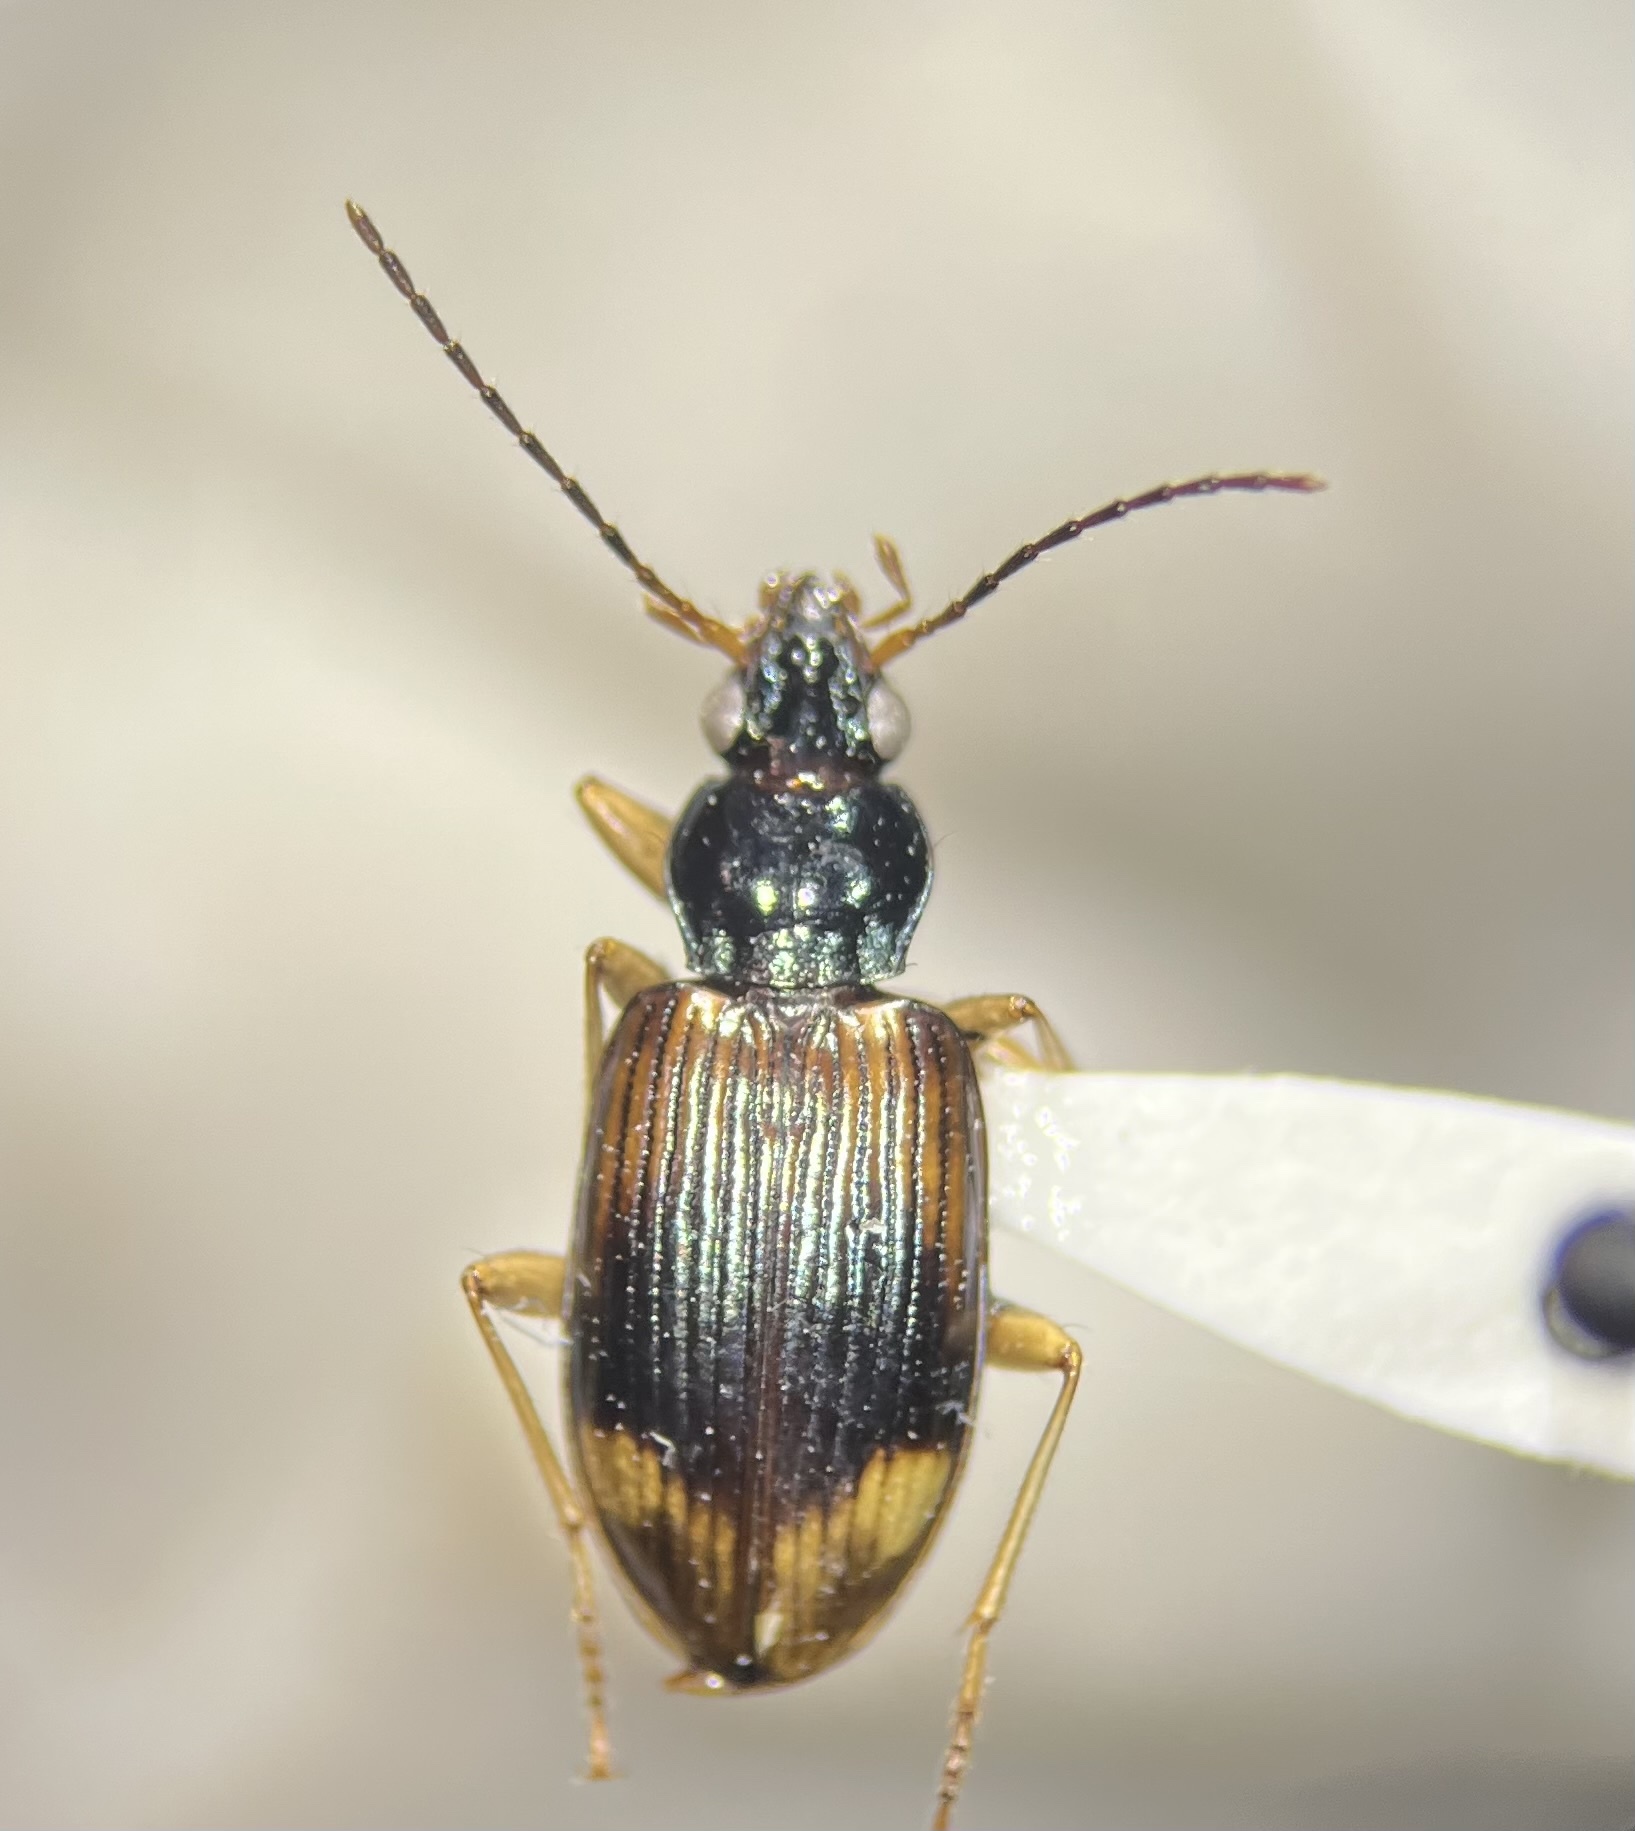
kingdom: Animalia
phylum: Arthropoda
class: Insecta
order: Coleoptera
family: Carabidae
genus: Bembidion
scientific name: Bembidion corgenoma
